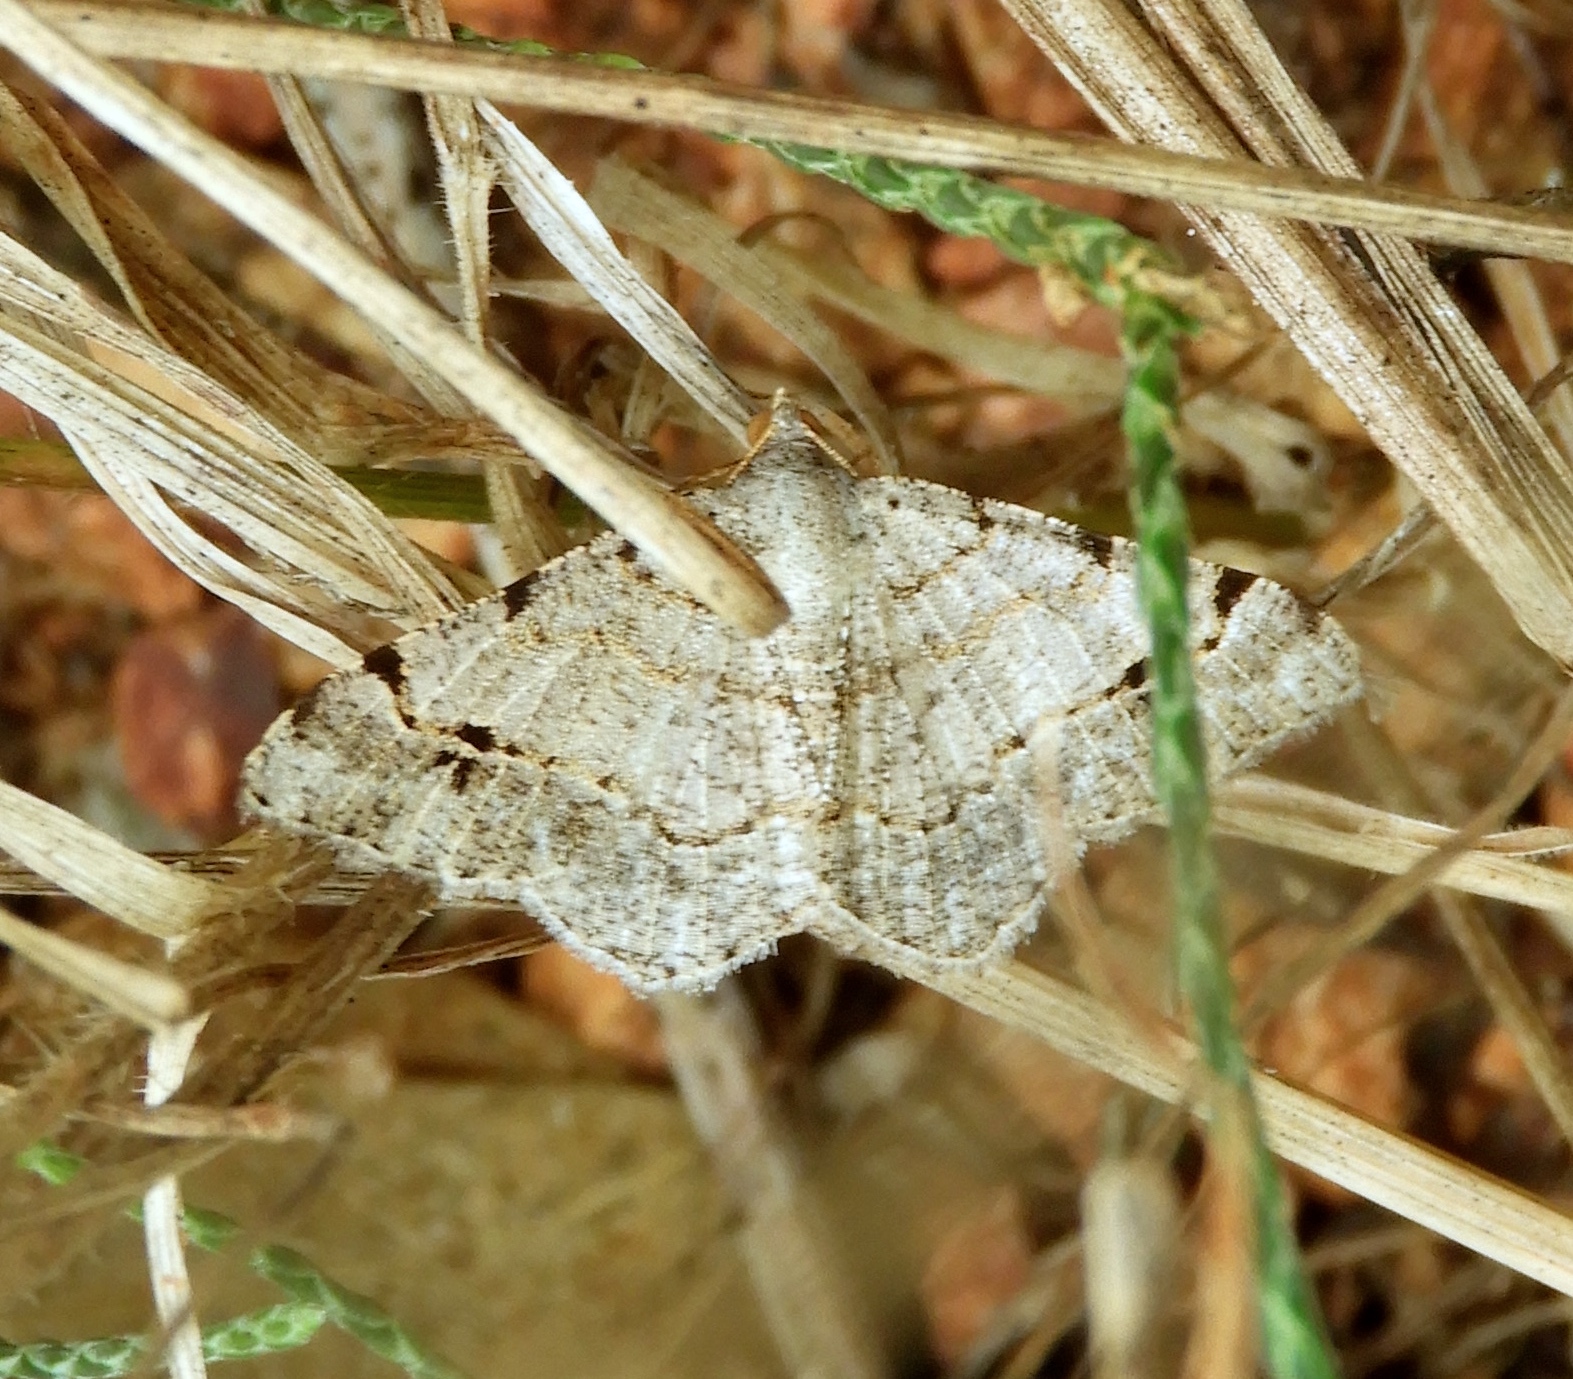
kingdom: Animalia
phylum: Arthropoda
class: Insecta
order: Lepidoptera
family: Geometridae
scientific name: Geometridae
